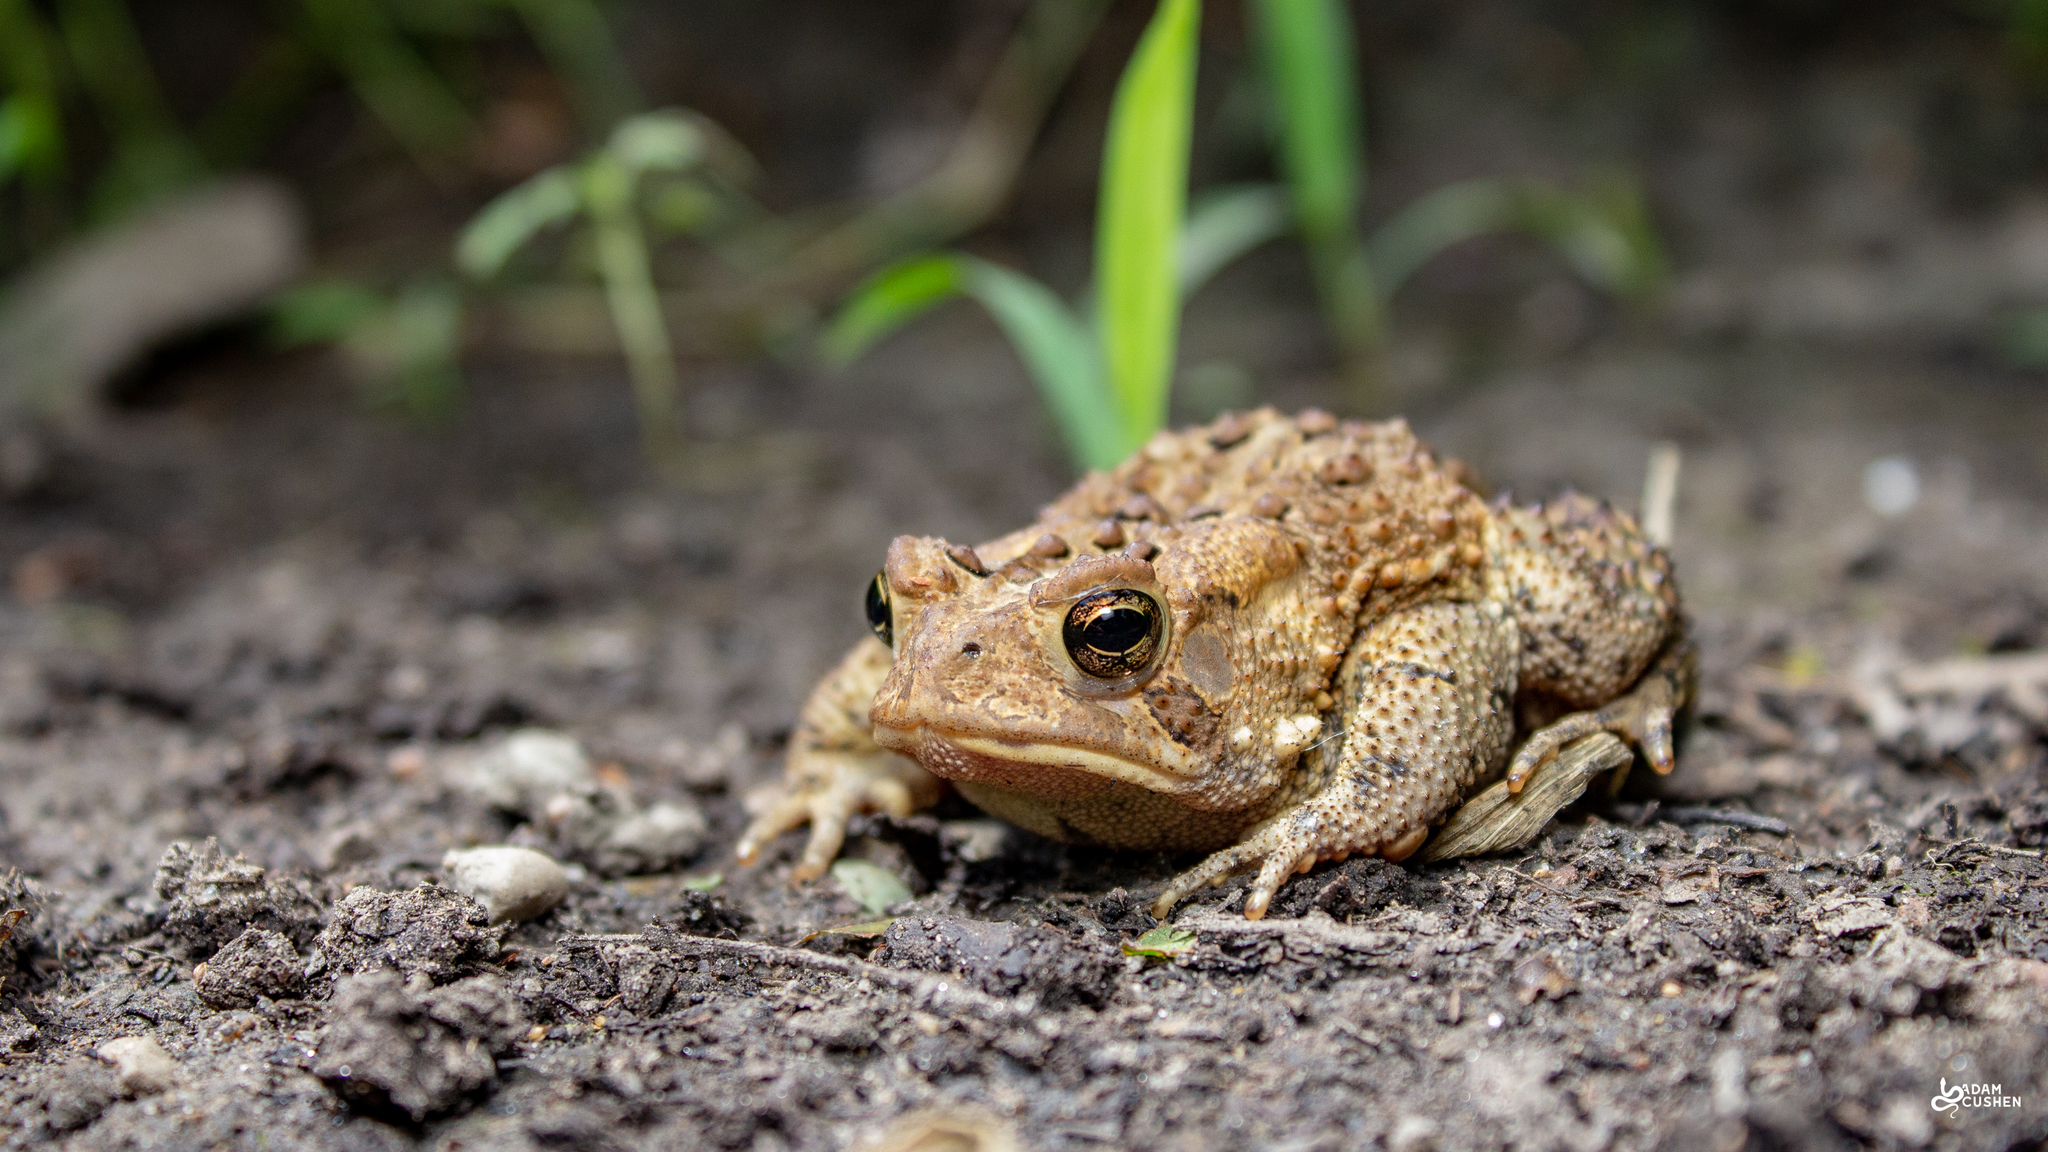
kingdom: Animalia
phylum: Chordata
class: Amphibia
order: Anura
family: Bufonidae
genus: Anaxyrus
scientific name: Anaxyrus americanus
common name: American toad
